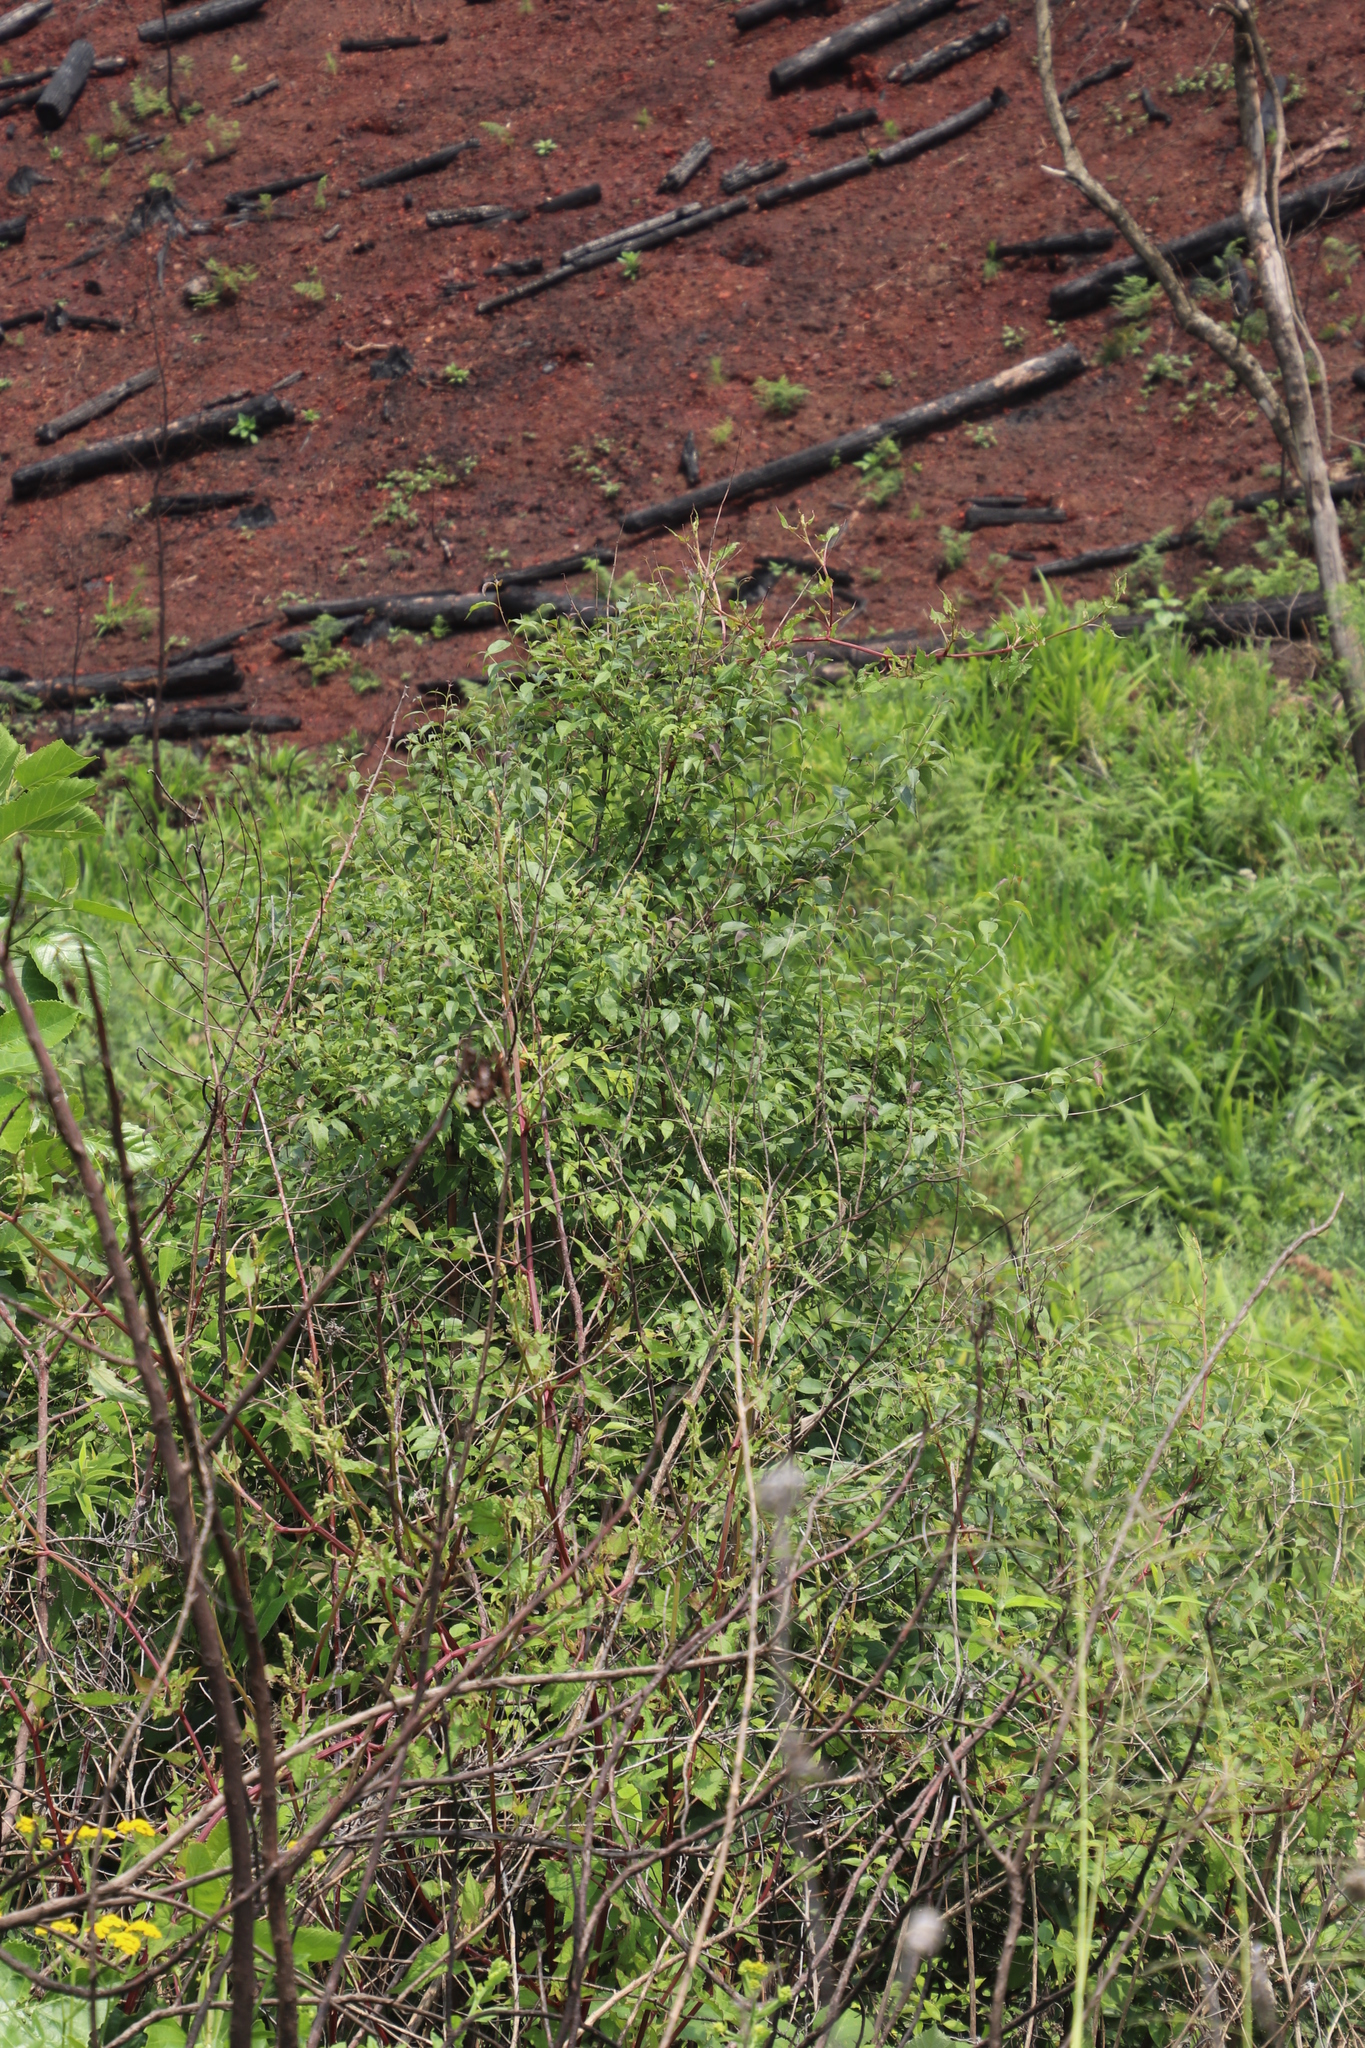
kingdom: Plantae
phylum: Tracheophyta
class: Magnoliopsida
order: Lamiales
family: Stilbaceae
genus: Halleria
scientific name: Halleria lucida
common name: Tree fuschia
